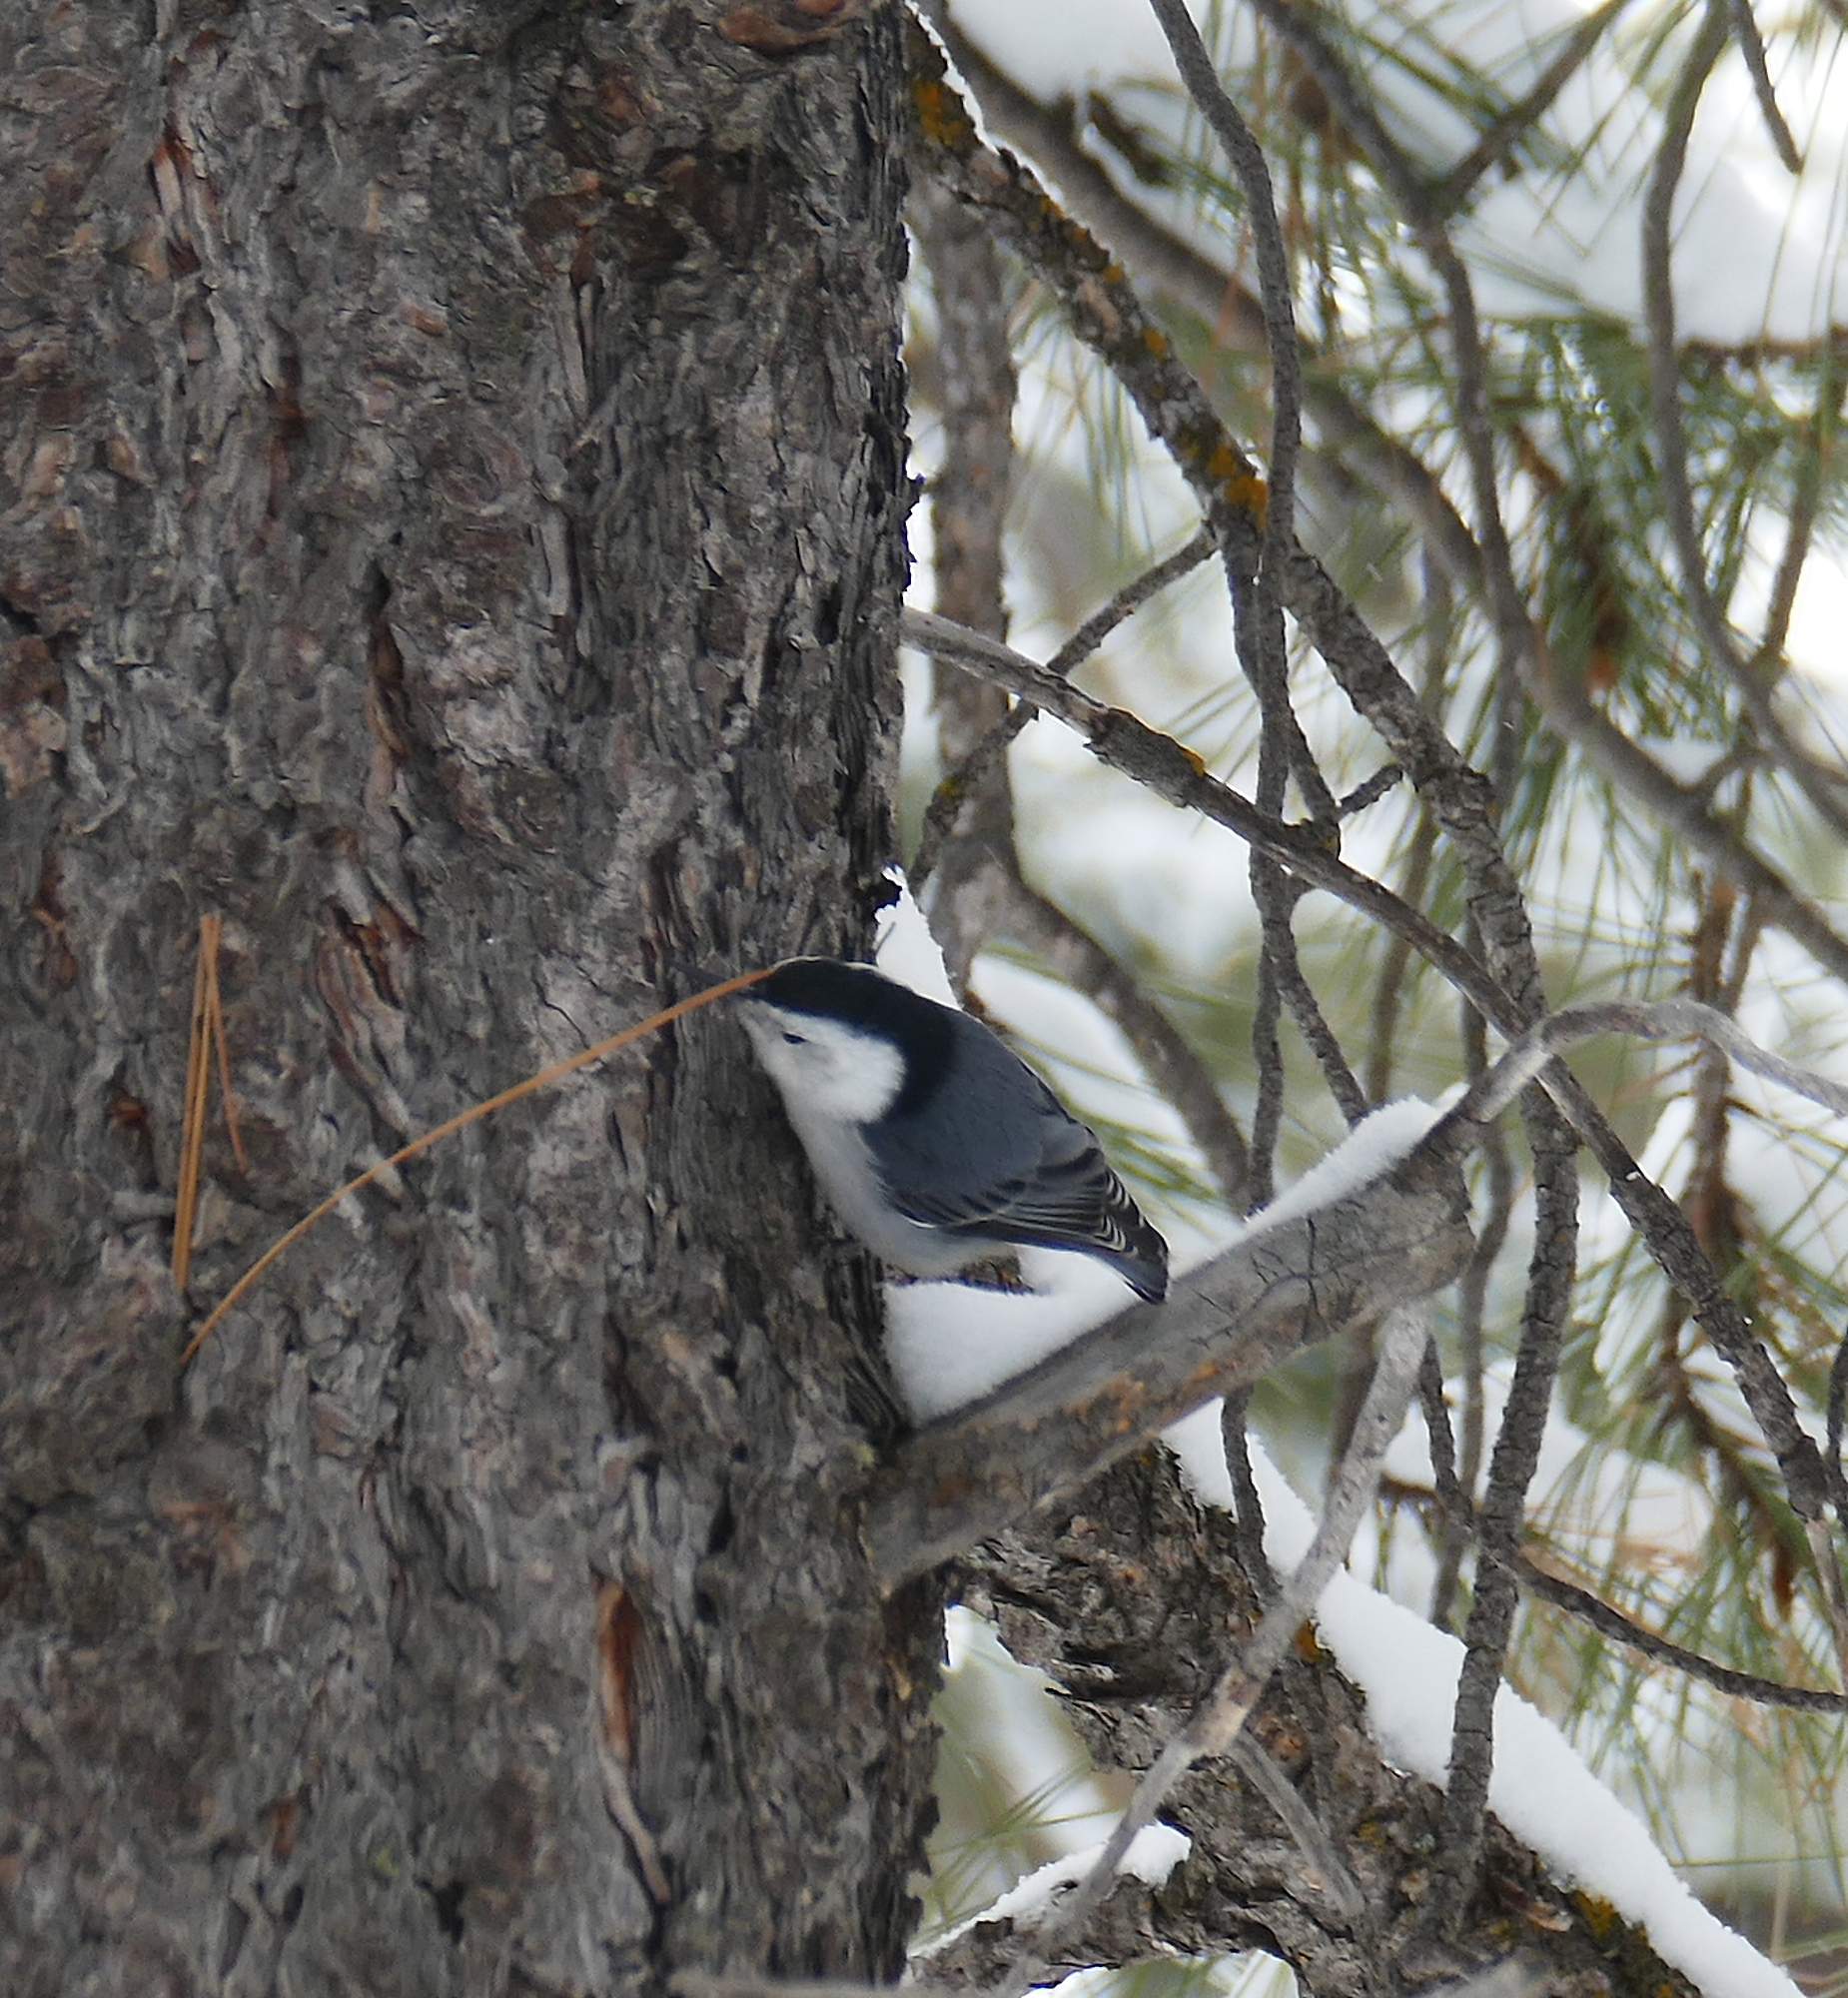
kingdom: Animalia
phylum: Chordata
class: Aves
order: Passeriformes
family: Sittidae
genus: Sitta
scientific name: Sitta carolinensis
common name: White-breasted nuthatch
